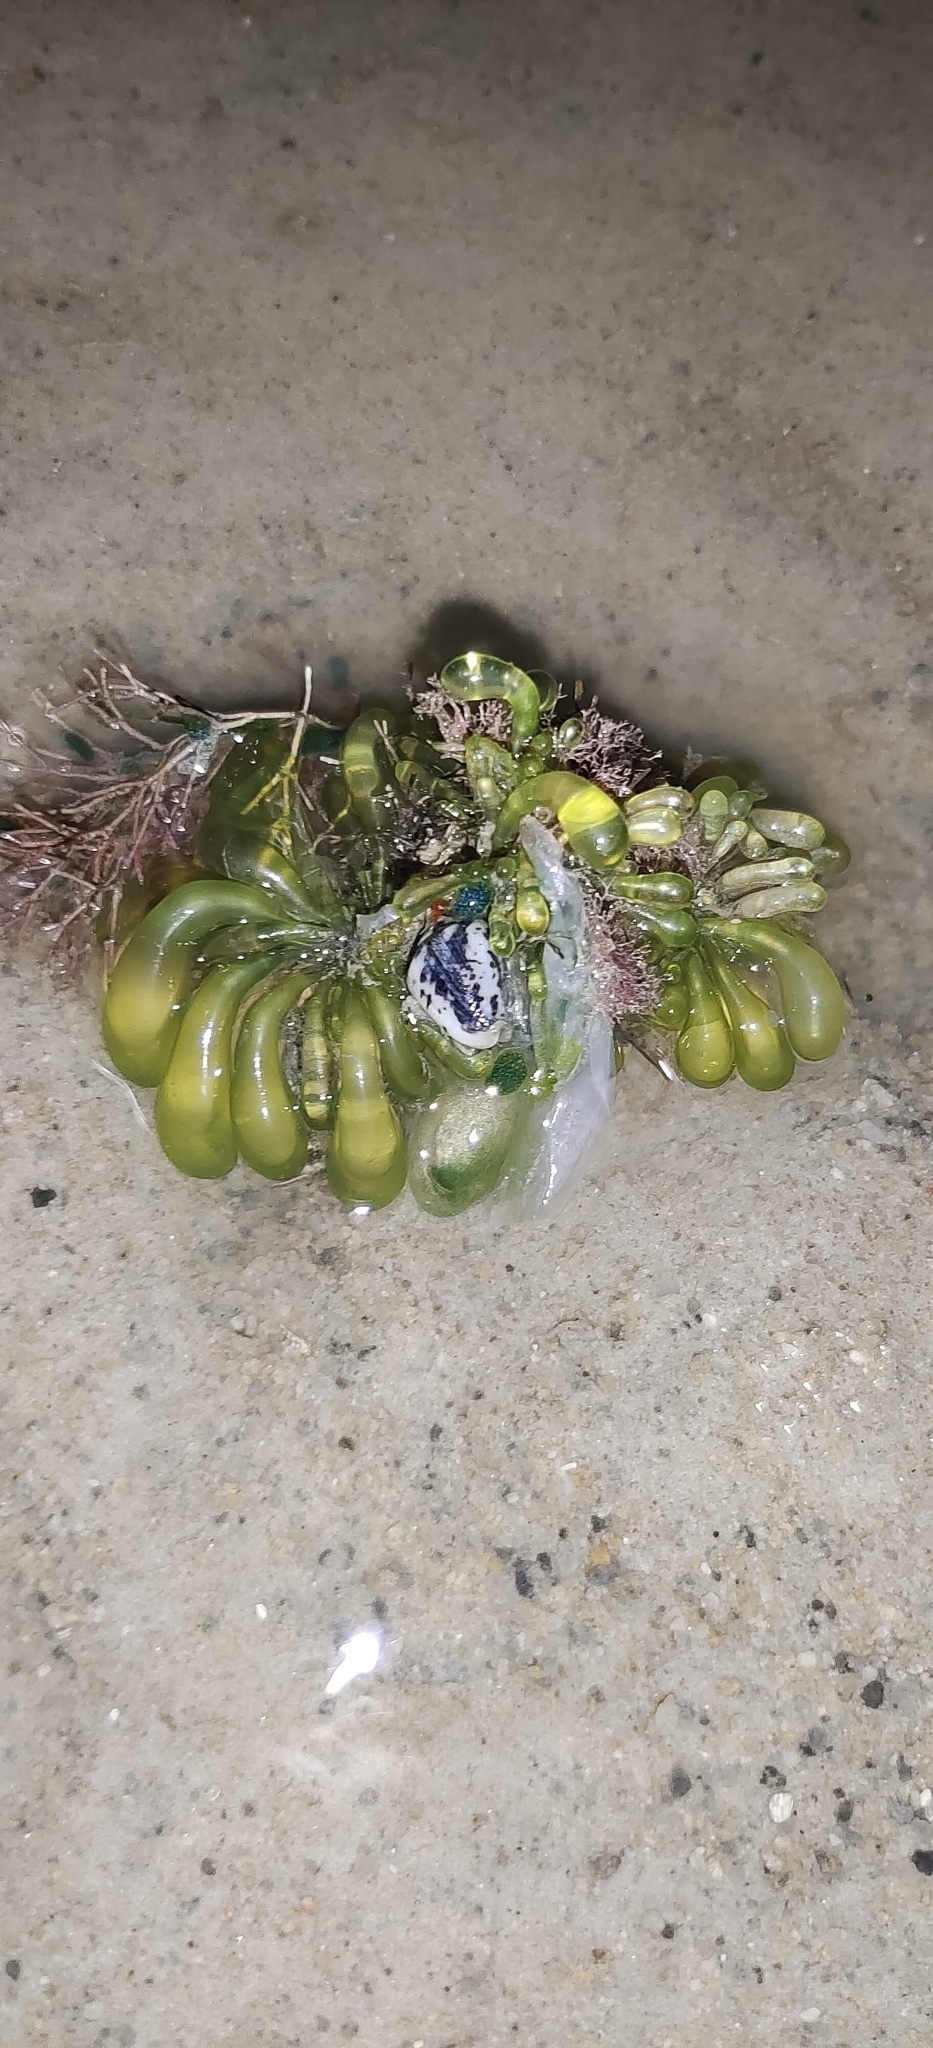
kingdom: Plantae
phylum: Chlorophyta
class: Ulvophyceae
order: Siphonocladales
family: Siphonocladaceae
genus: Boergesenia
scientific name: Boergesenia forbesii
